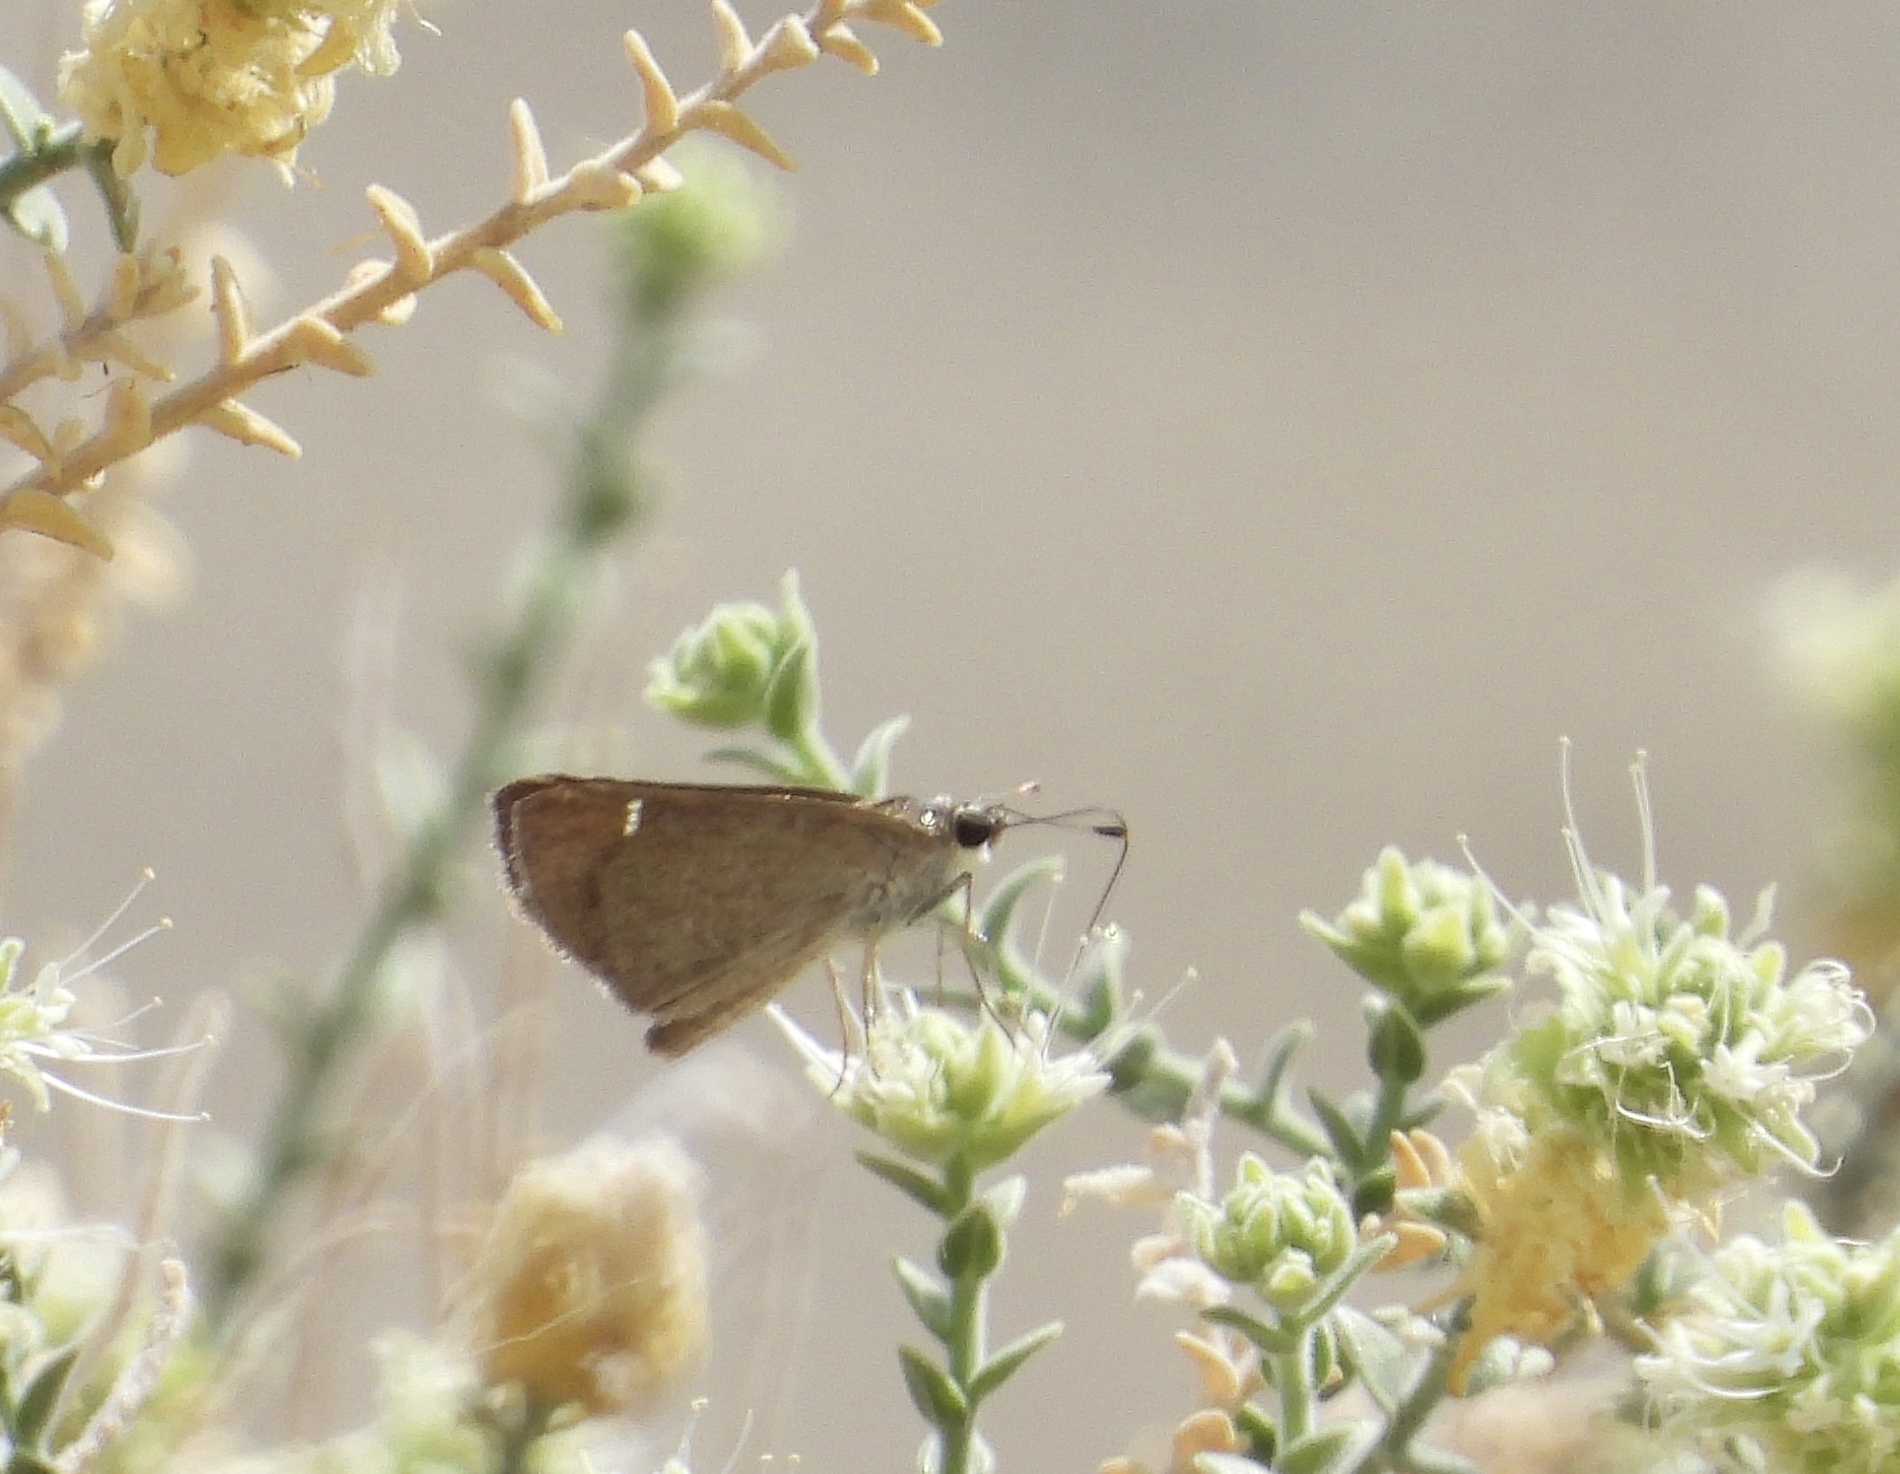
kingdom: Animalia
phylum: Arthropoda
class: Insecta
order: Lepidoptera
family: Hesperiidae
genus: Lerodea
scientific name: Lerodea eufala
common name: Eufala skipper
